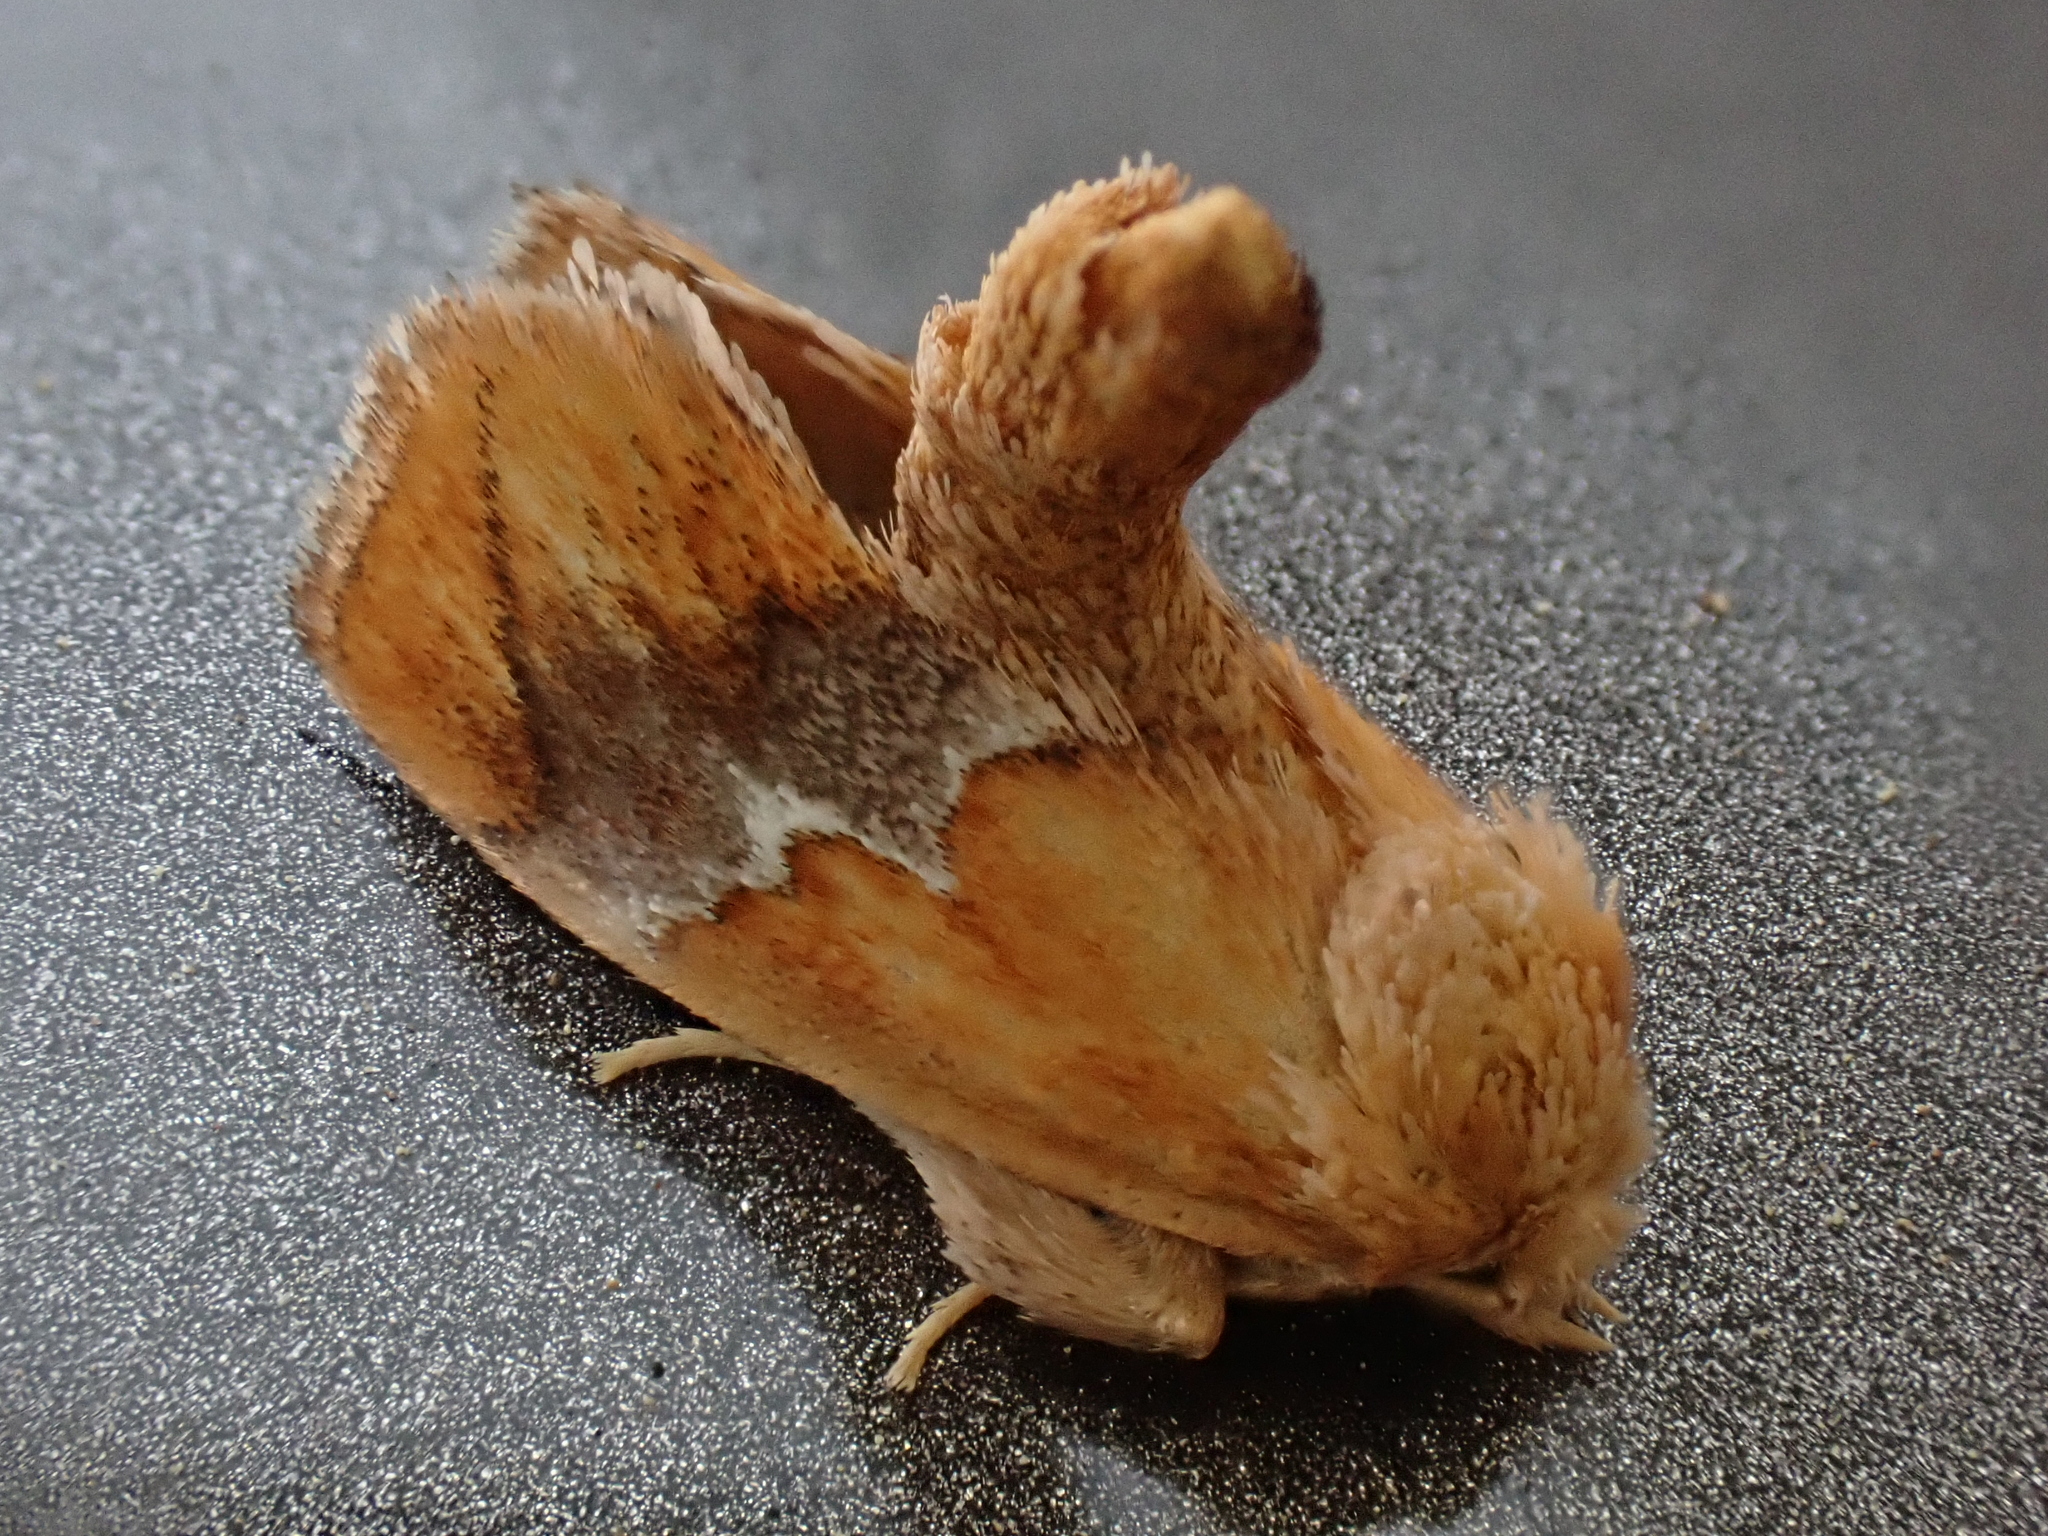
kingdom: Animalia
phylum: Arthropoda
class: Insecta
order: Lepidoptera
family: Limacodidae
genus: Lithacodes
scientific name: Lithacodes fasciola
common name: Yellow-shouldered slug moth
